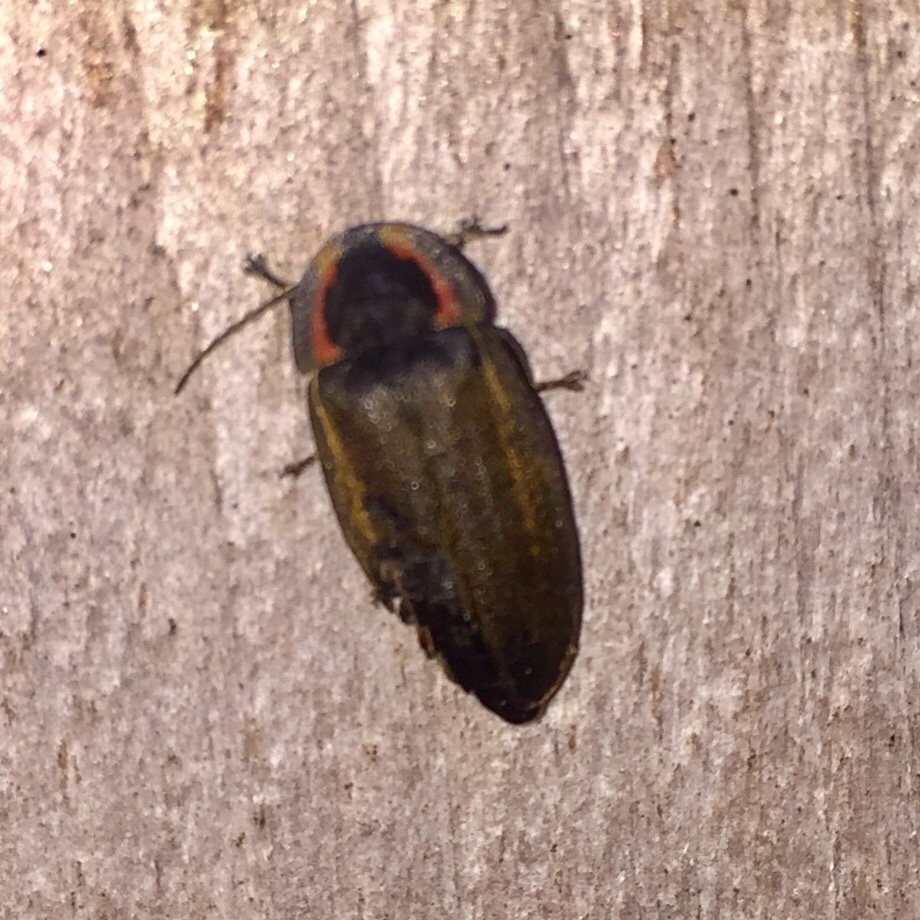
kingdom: Animalia
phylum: Arthropoda
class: Insecta
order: Coleoptera
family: Lampyridae
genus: Photinus
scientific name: Photinus corrusca
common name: Winter firefly
